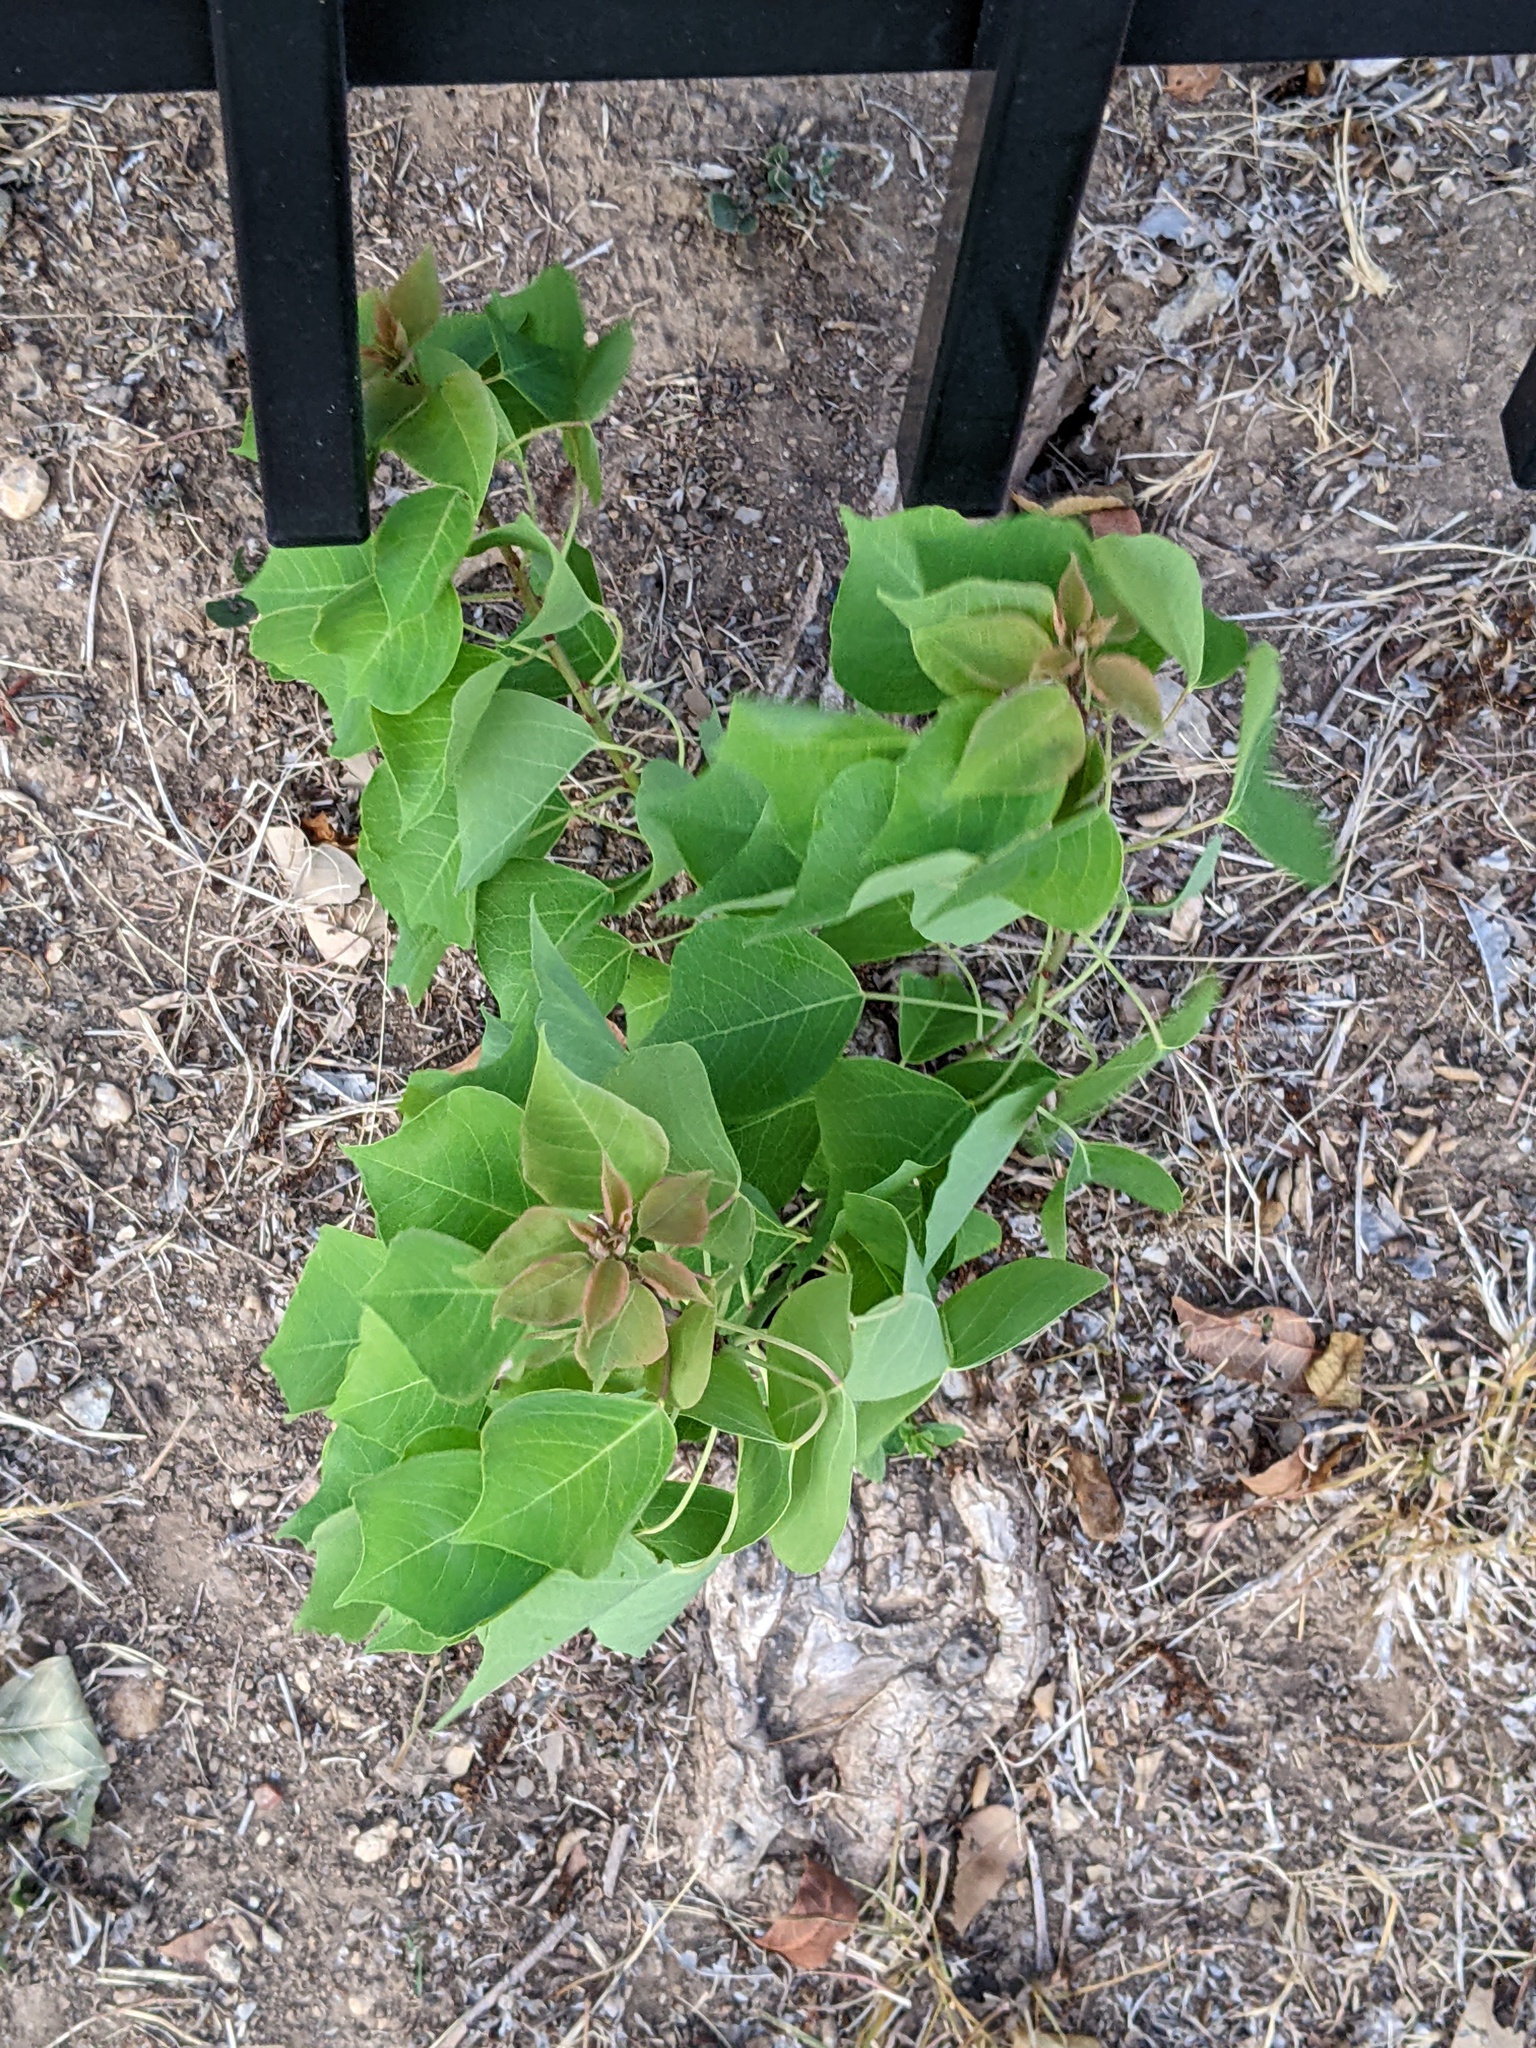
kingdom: Plantae
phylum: Tracheophyta
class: Magnoliopsida
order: Malpighiales
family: Euphorbiaceae
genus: Triadica
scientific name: Triadica sebifera
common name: Chinese tallow
